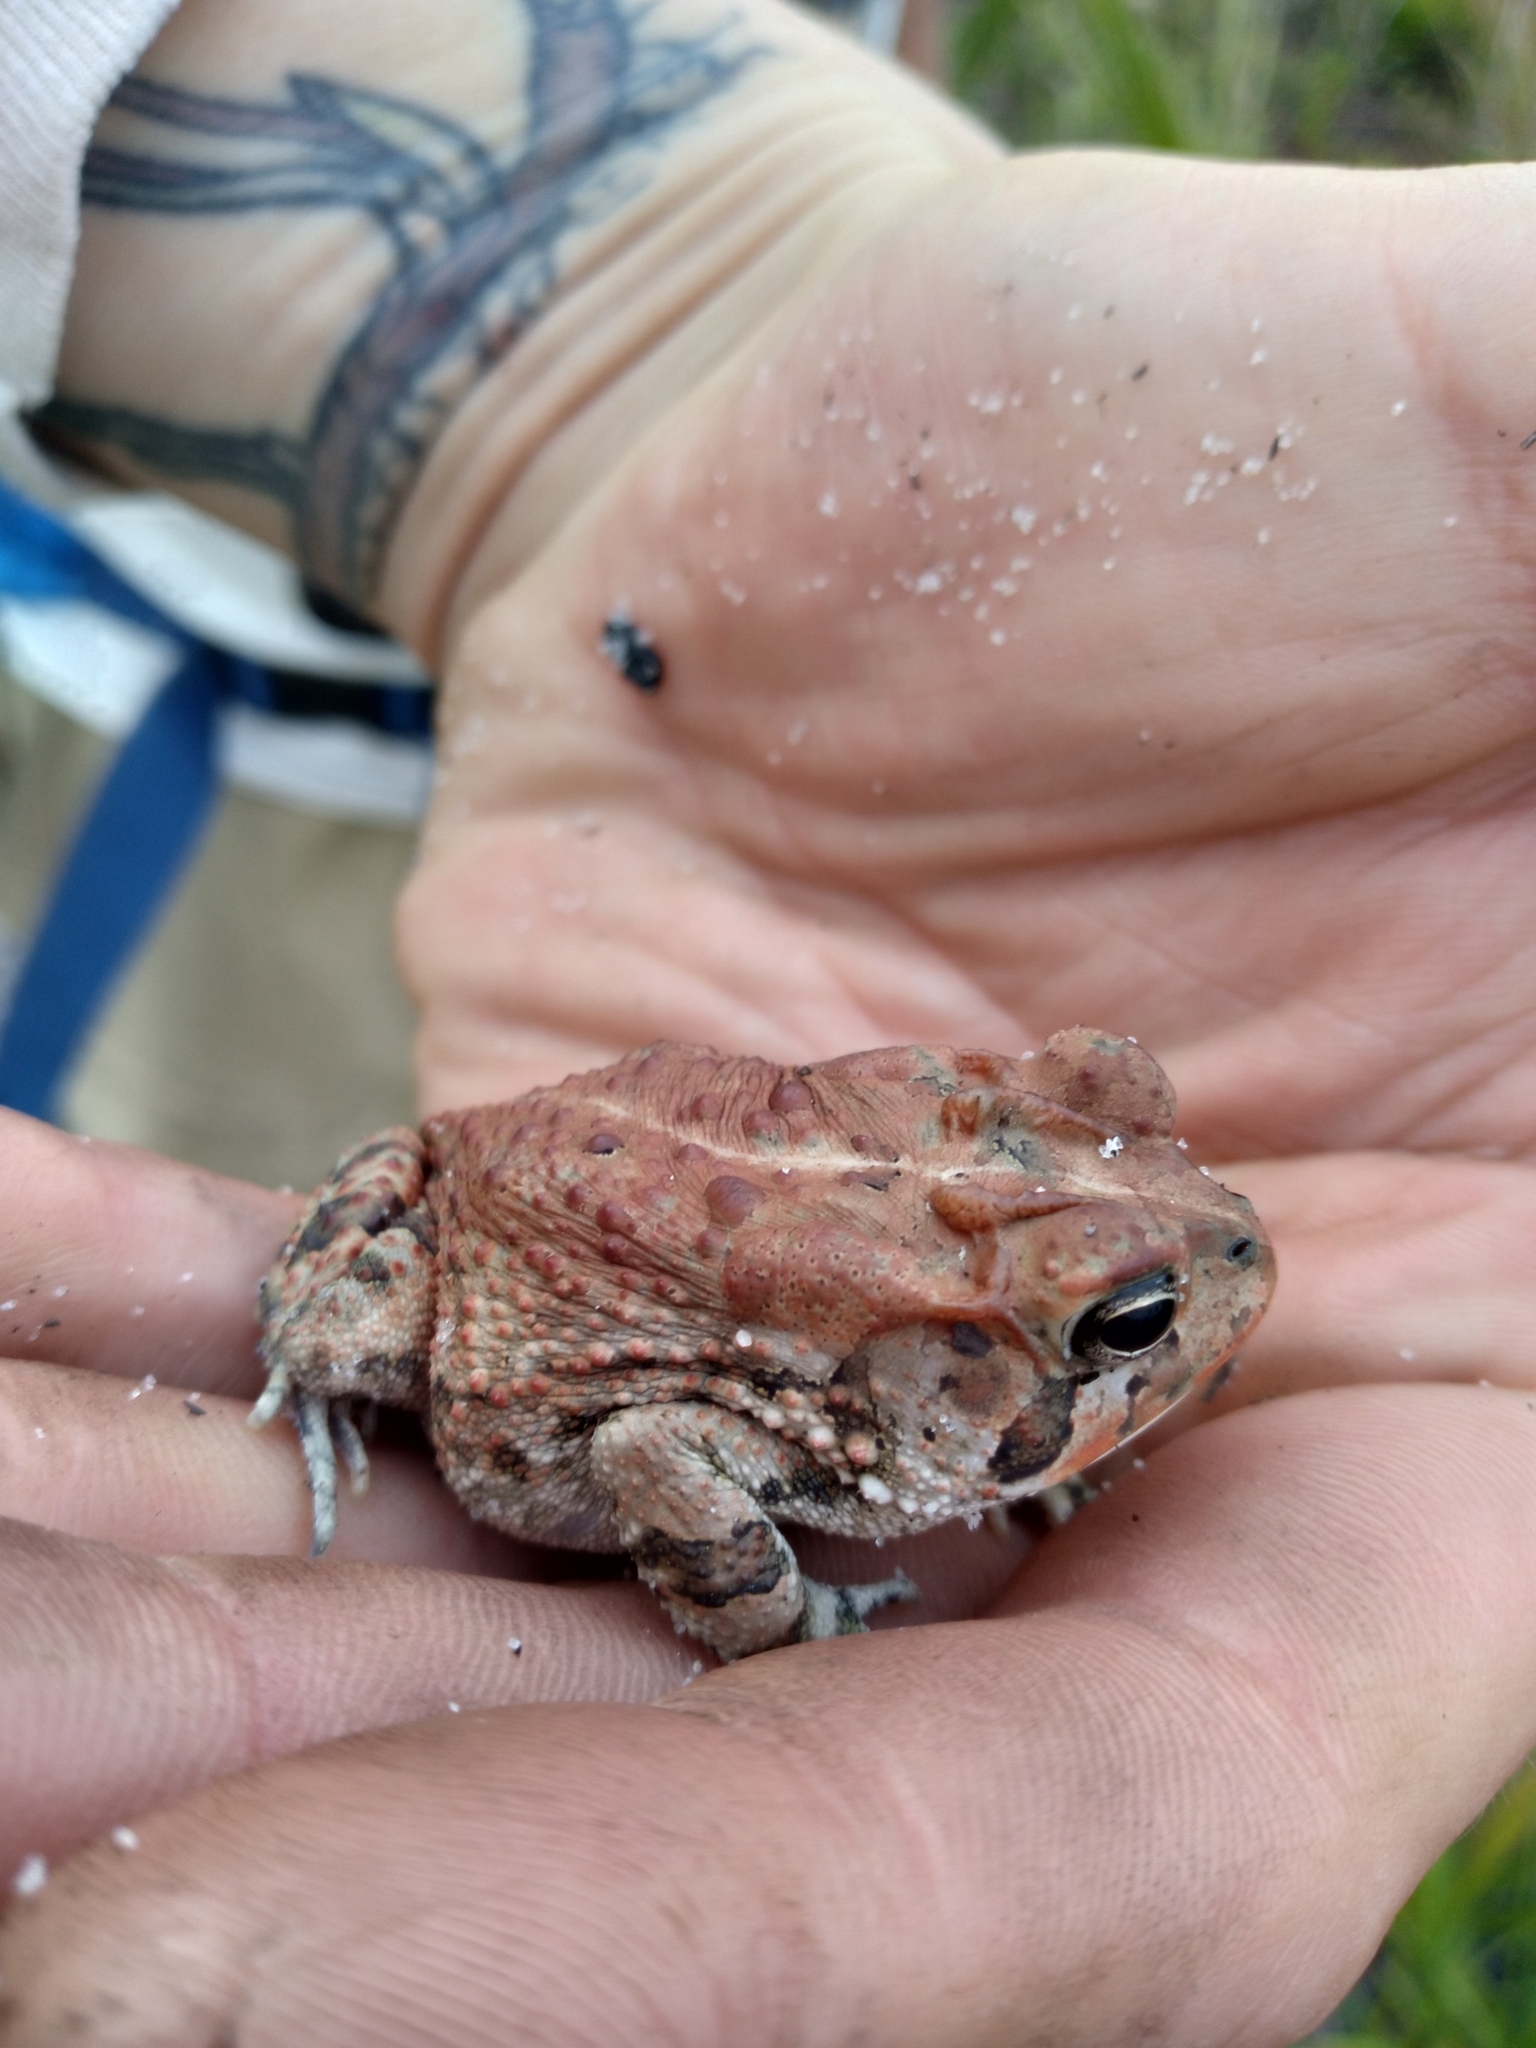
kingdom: Animalia
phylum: Chordata
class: Amphibia
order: Anura
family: Bufonidae
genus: Anaxyrus
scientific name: Anaxyrus terrestris
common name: Southern toad
